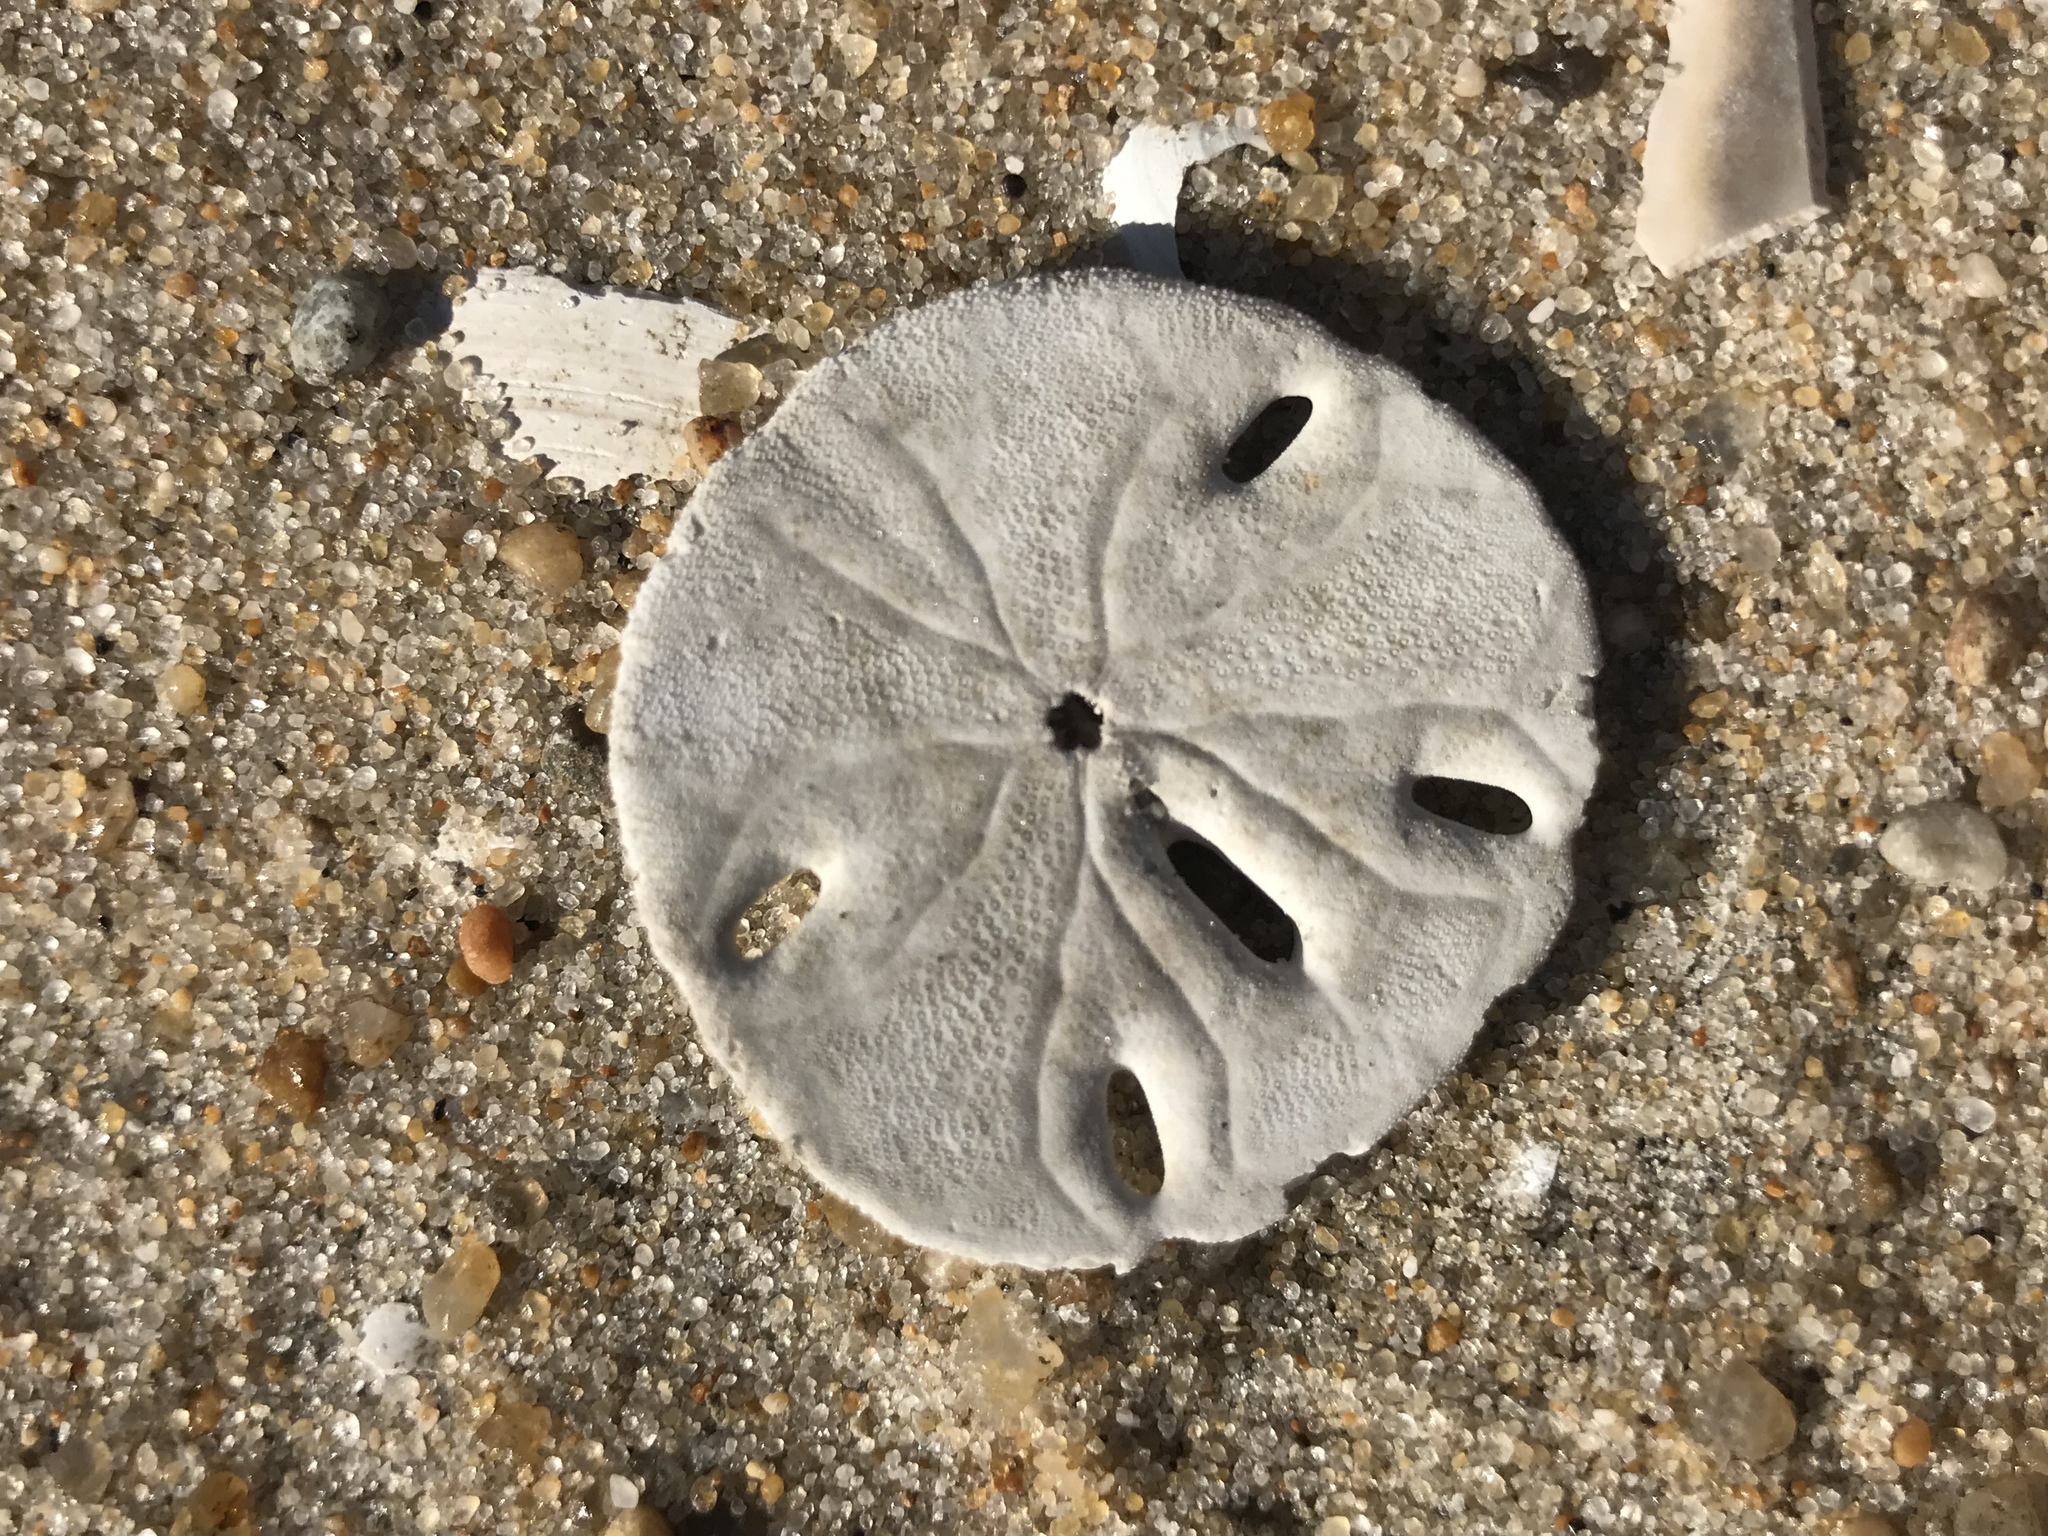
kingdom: Animalia
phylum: Echinodermata
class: Echinoidea
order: Echinolampadacea
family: Mellitidae
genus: Mellita
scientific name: Mellita isometra
